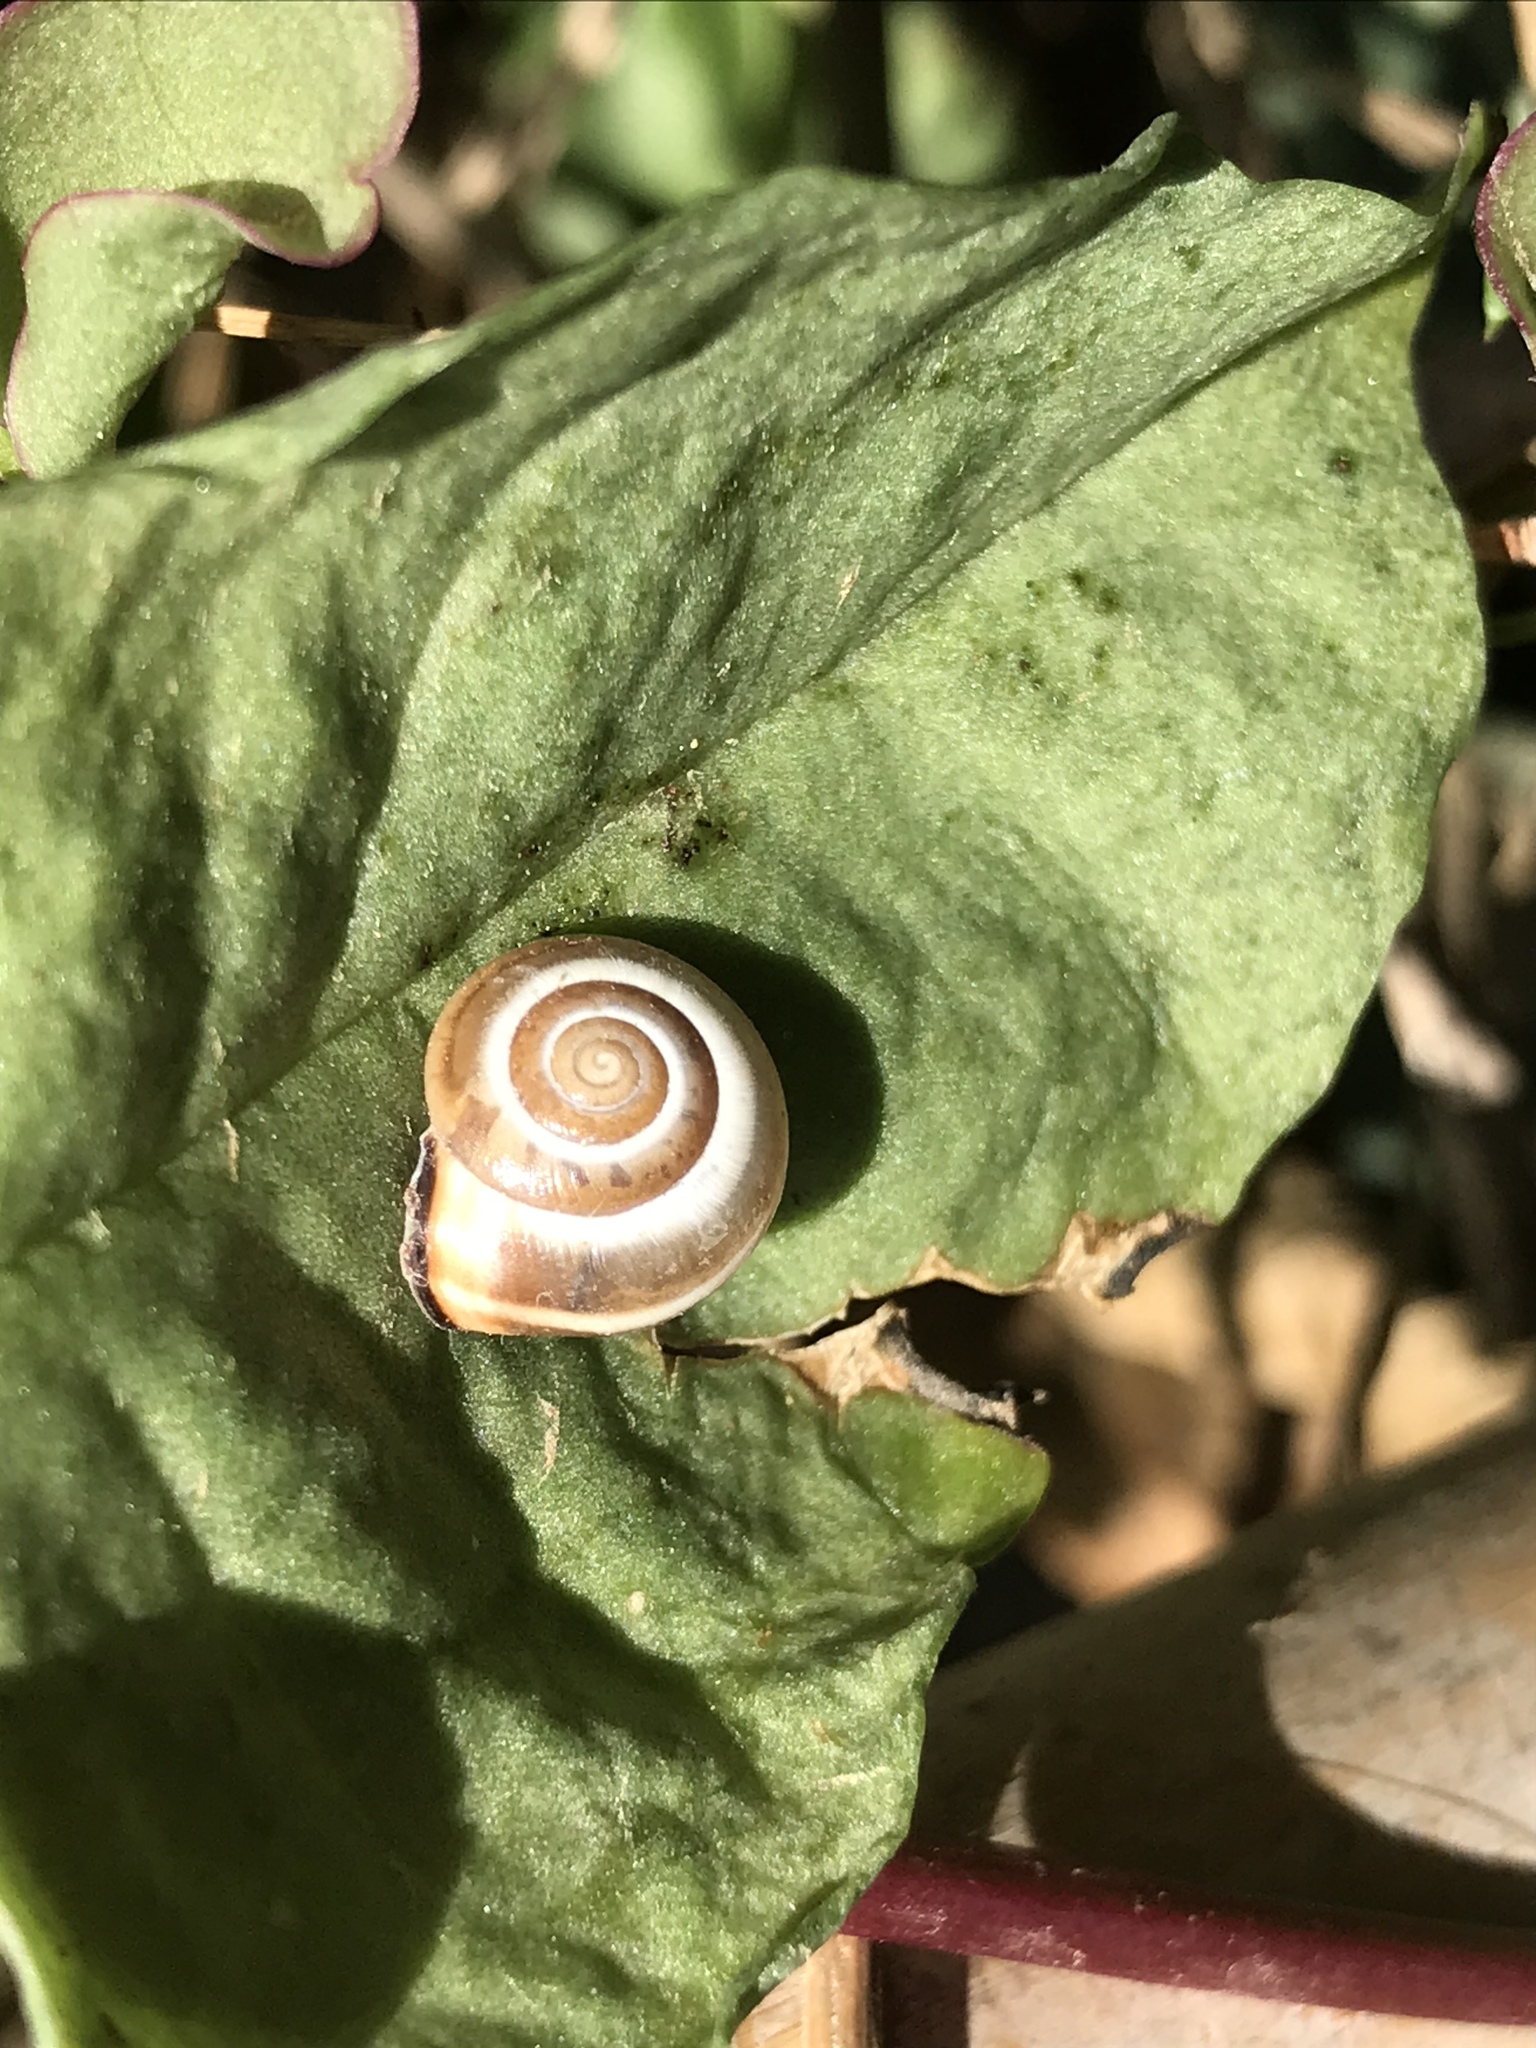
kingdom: Animalia
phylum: Mollusca
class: Gastropoda
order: Stylommatophora
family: Hygromiidae
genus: Monacha
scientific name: Monacha syriaca
